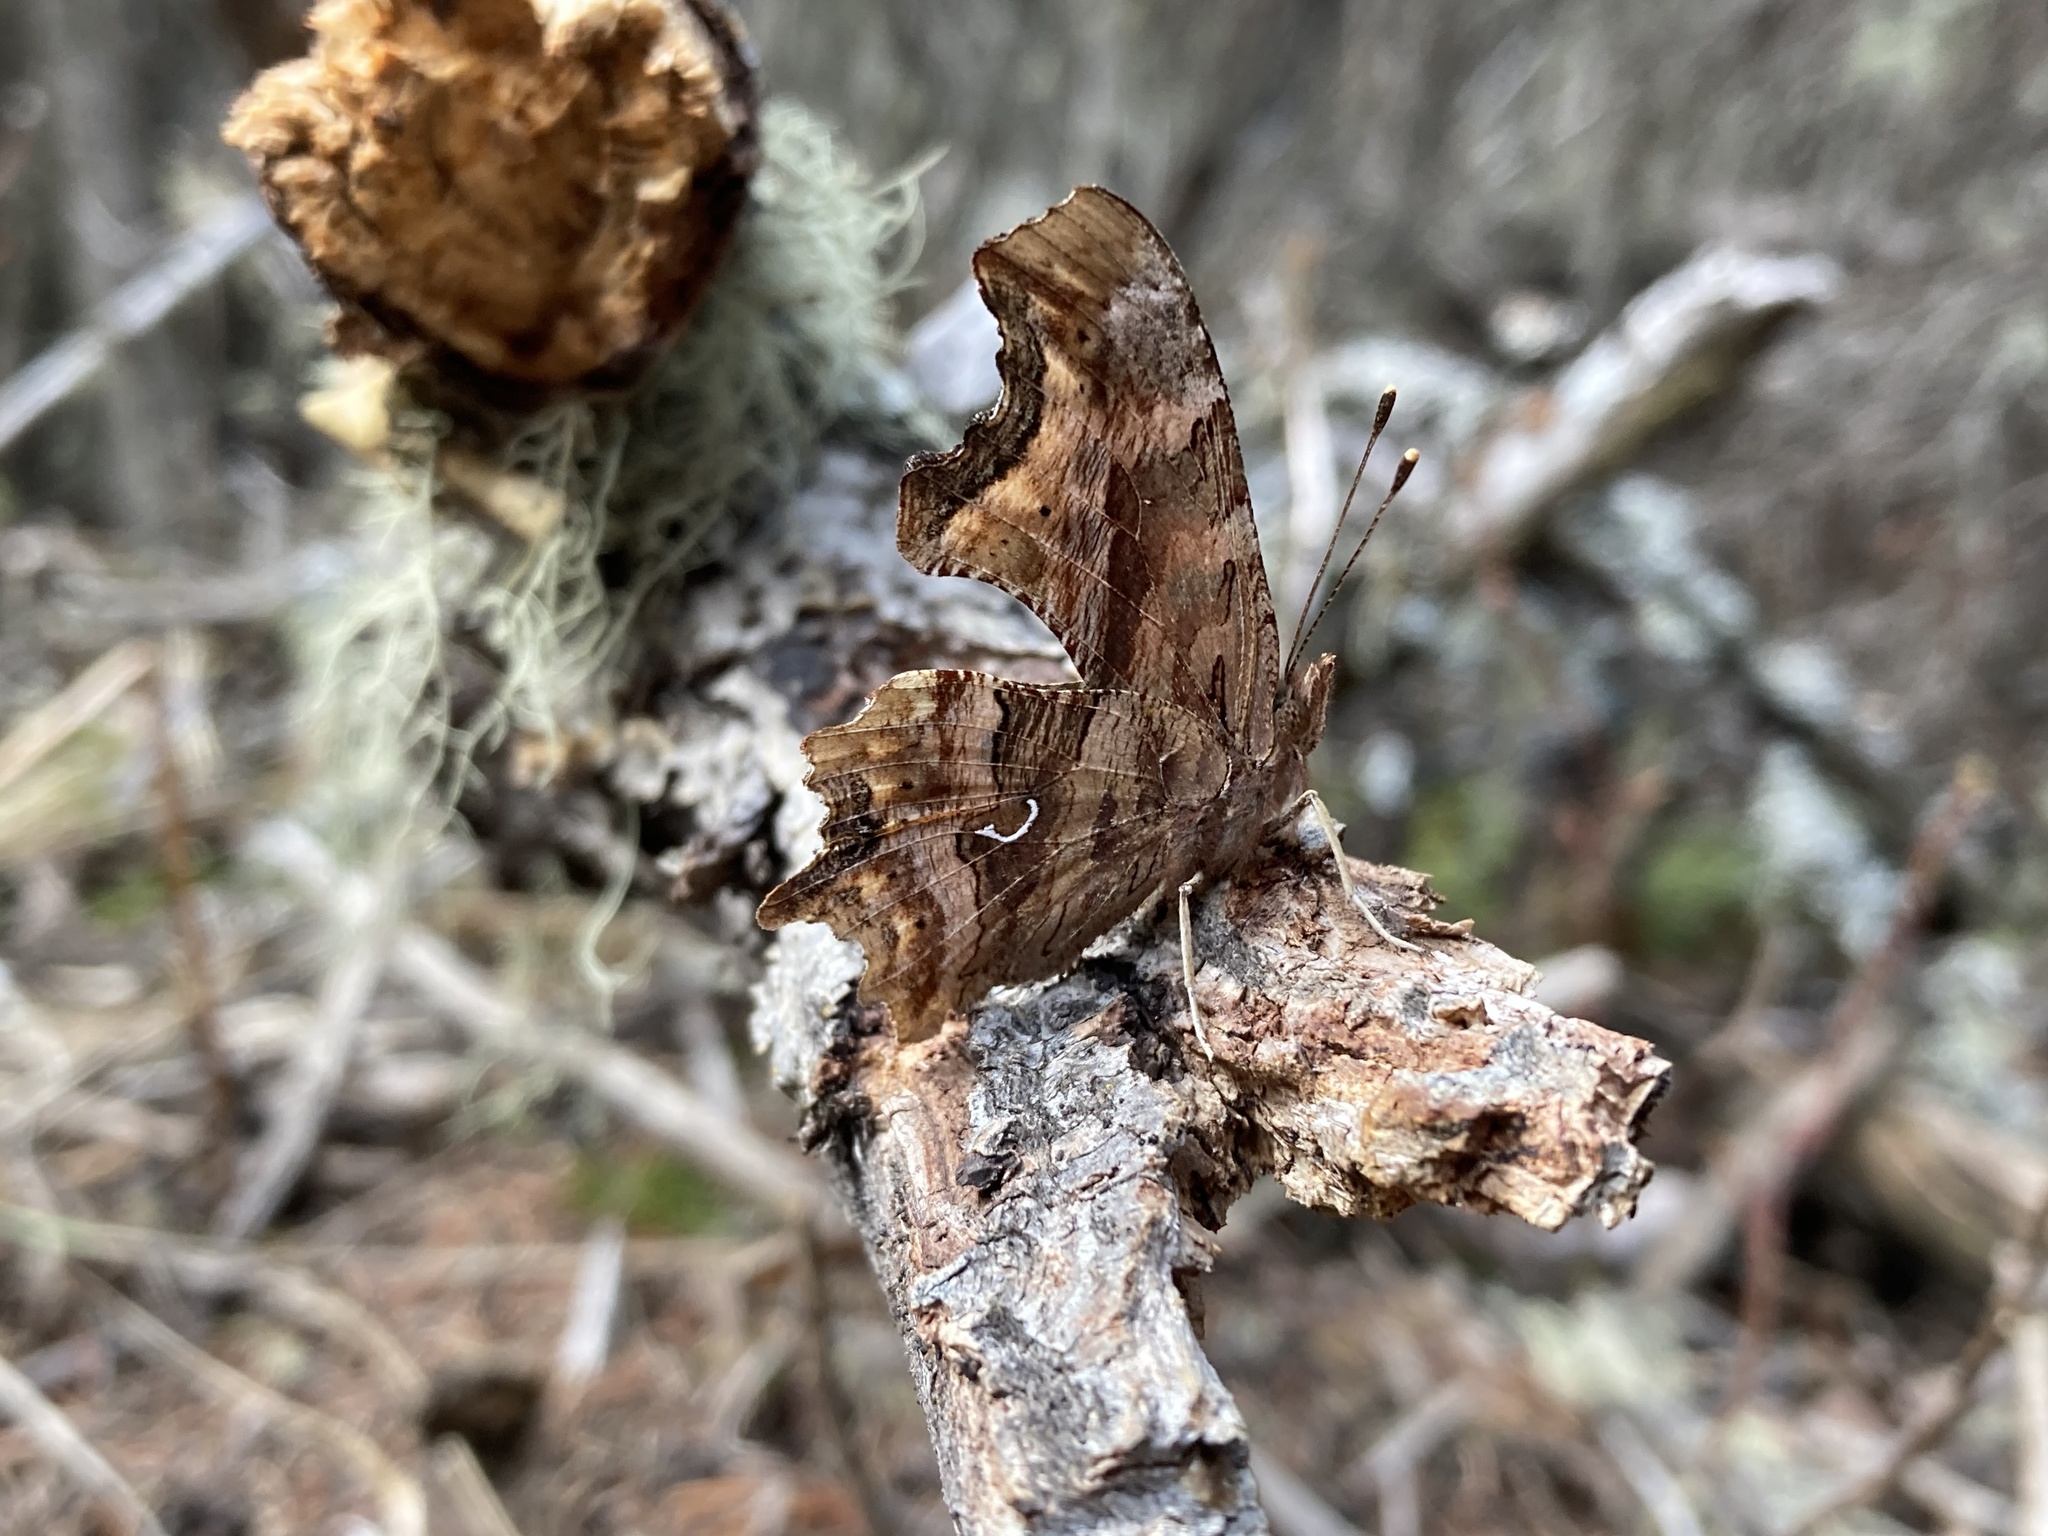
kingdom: Animalia
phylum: Arthropoda
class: Insecta
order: Lepidoptera
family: Nymphalidae
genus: Polygonia
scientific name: Polygonia satyrus
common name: Satyr angle wing
